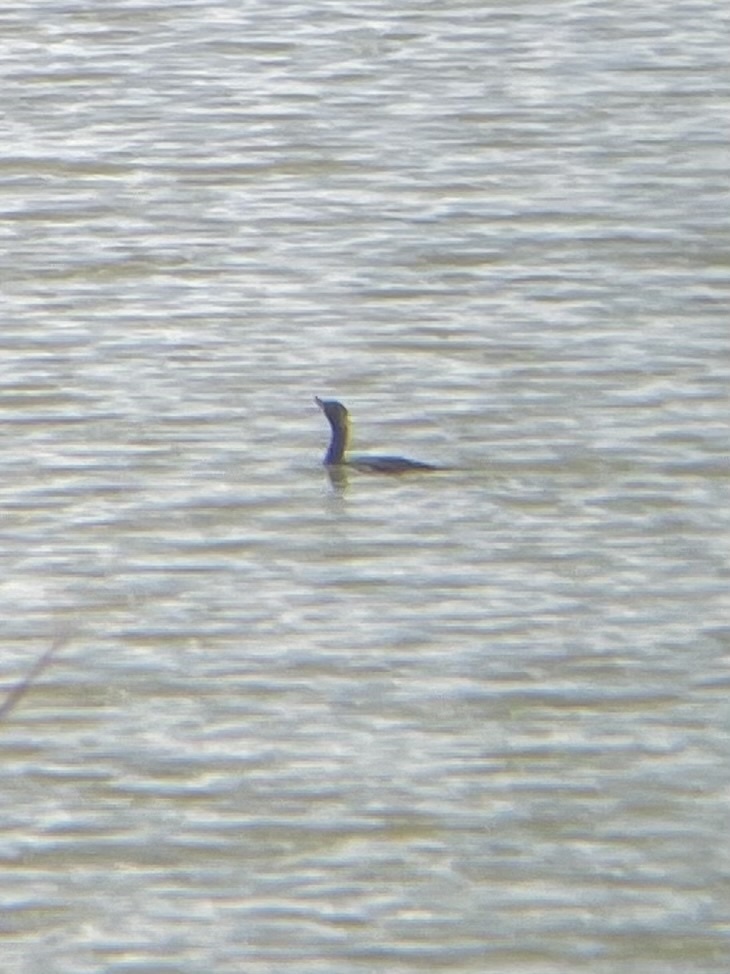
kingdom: Animalia
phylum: Chordata
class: Aves
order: Suliformes
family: Phalacrocoracidae
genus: Phalacrocorax
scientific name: Phalacrocorax auritus
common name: Double-crested cormorant
